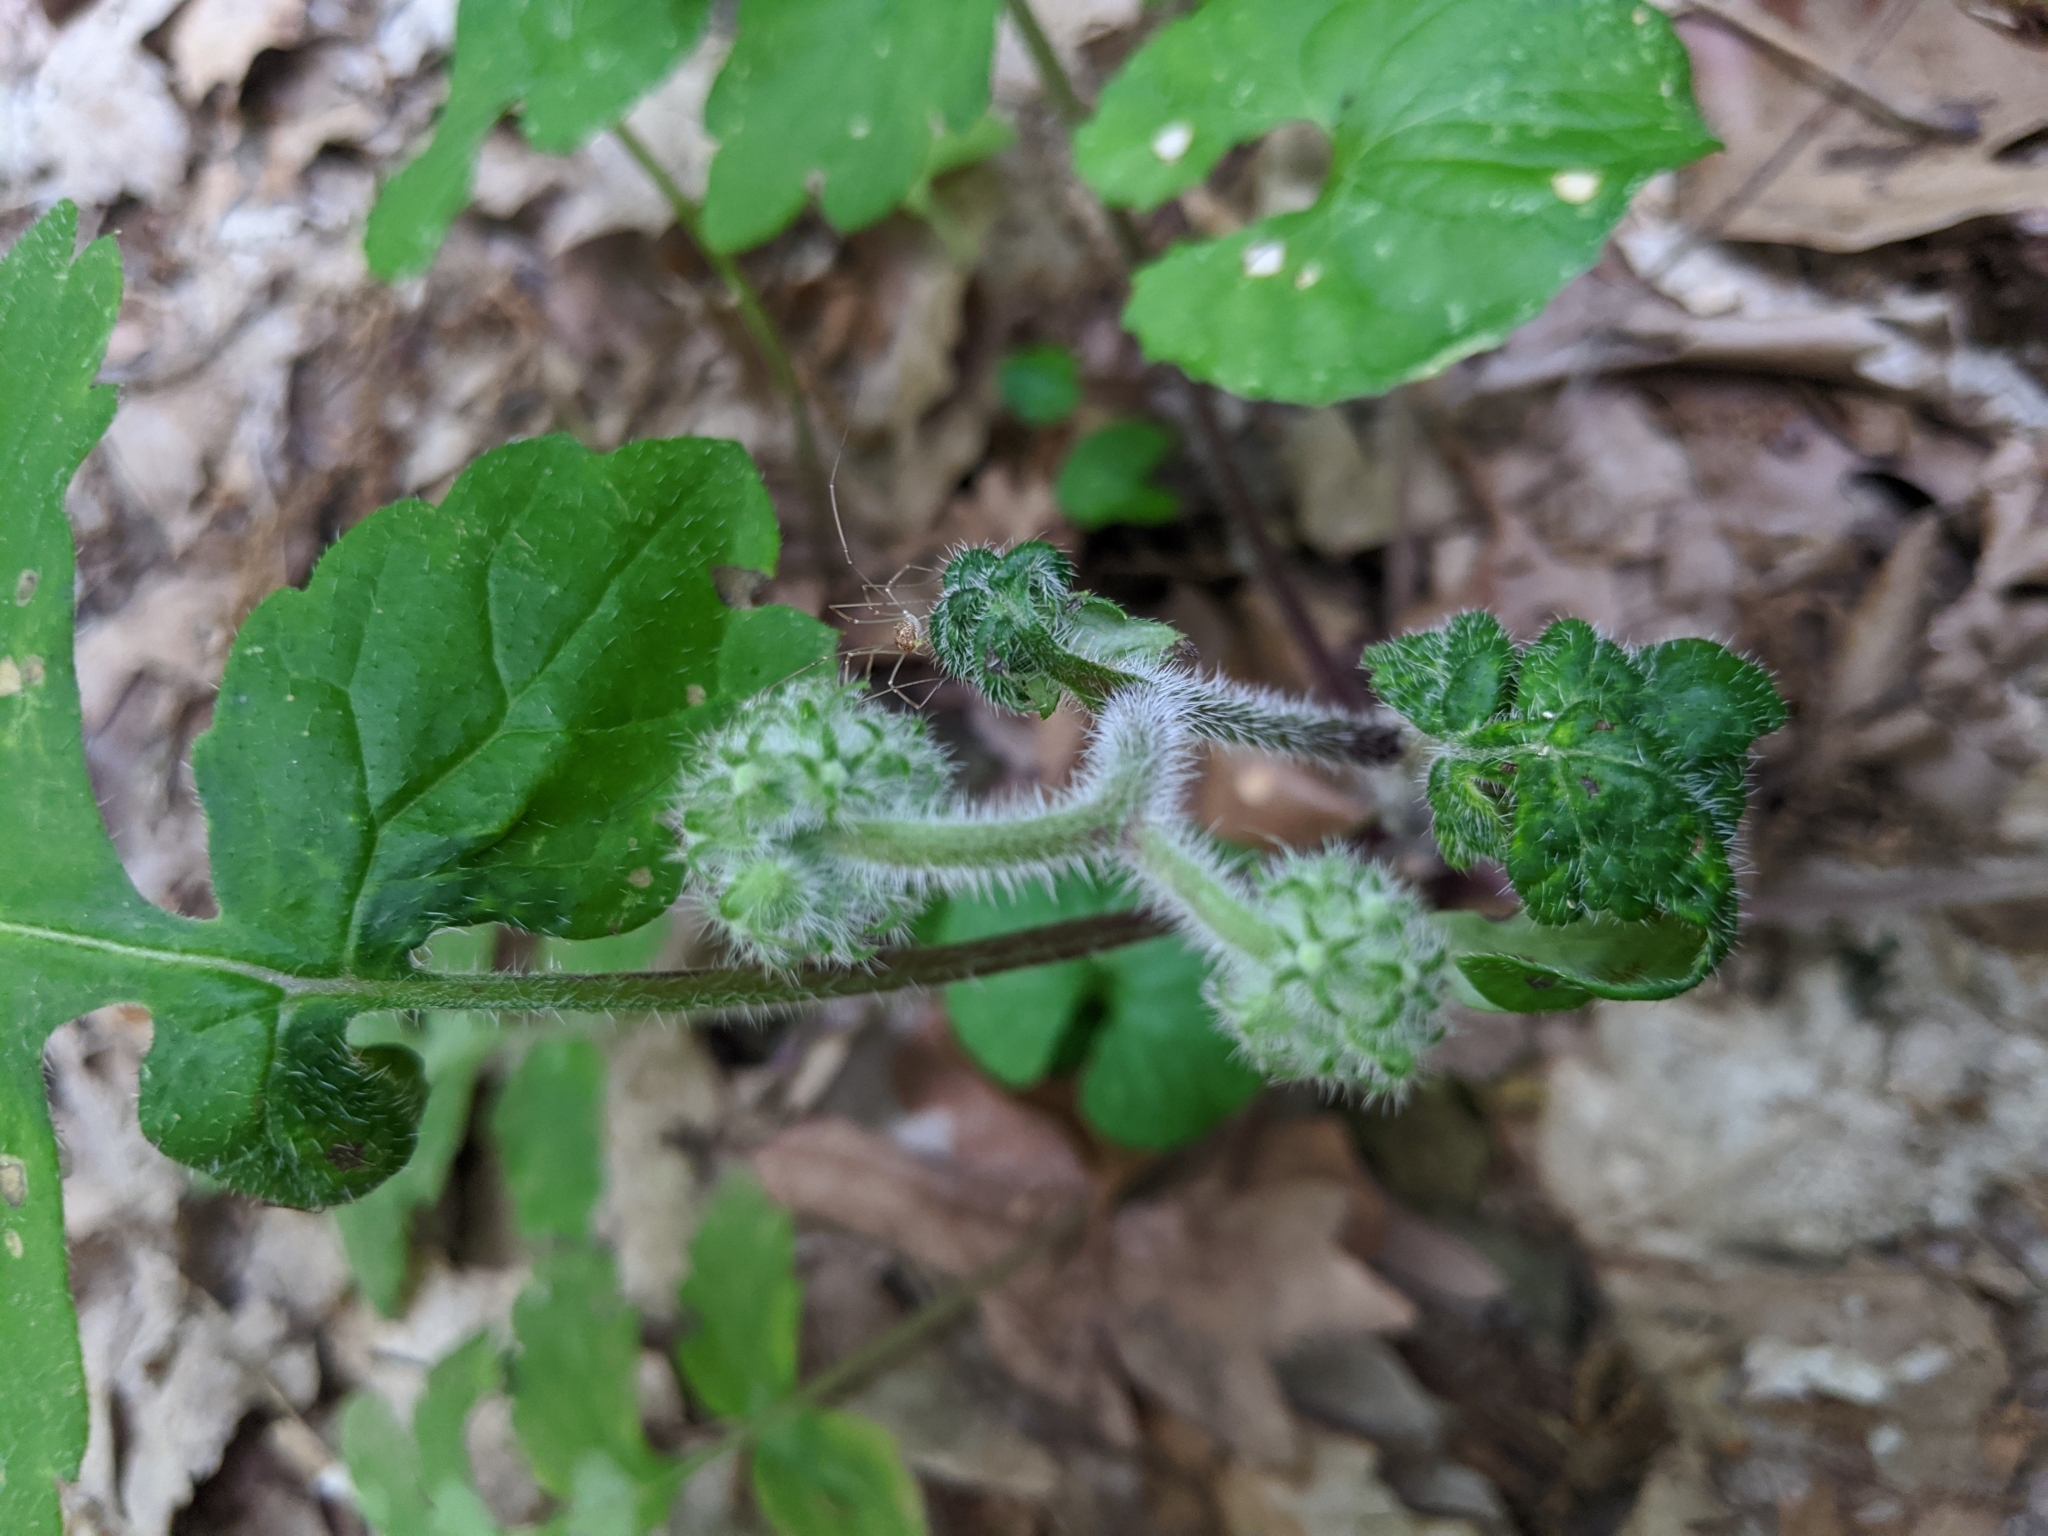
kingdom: Plantae
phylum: Tracheophyta
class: Magnoliopsida
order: Boraginales
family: Hydrophyllaceae
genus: Hydrophyllum
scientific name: Hydrophyllum macrophyllum
